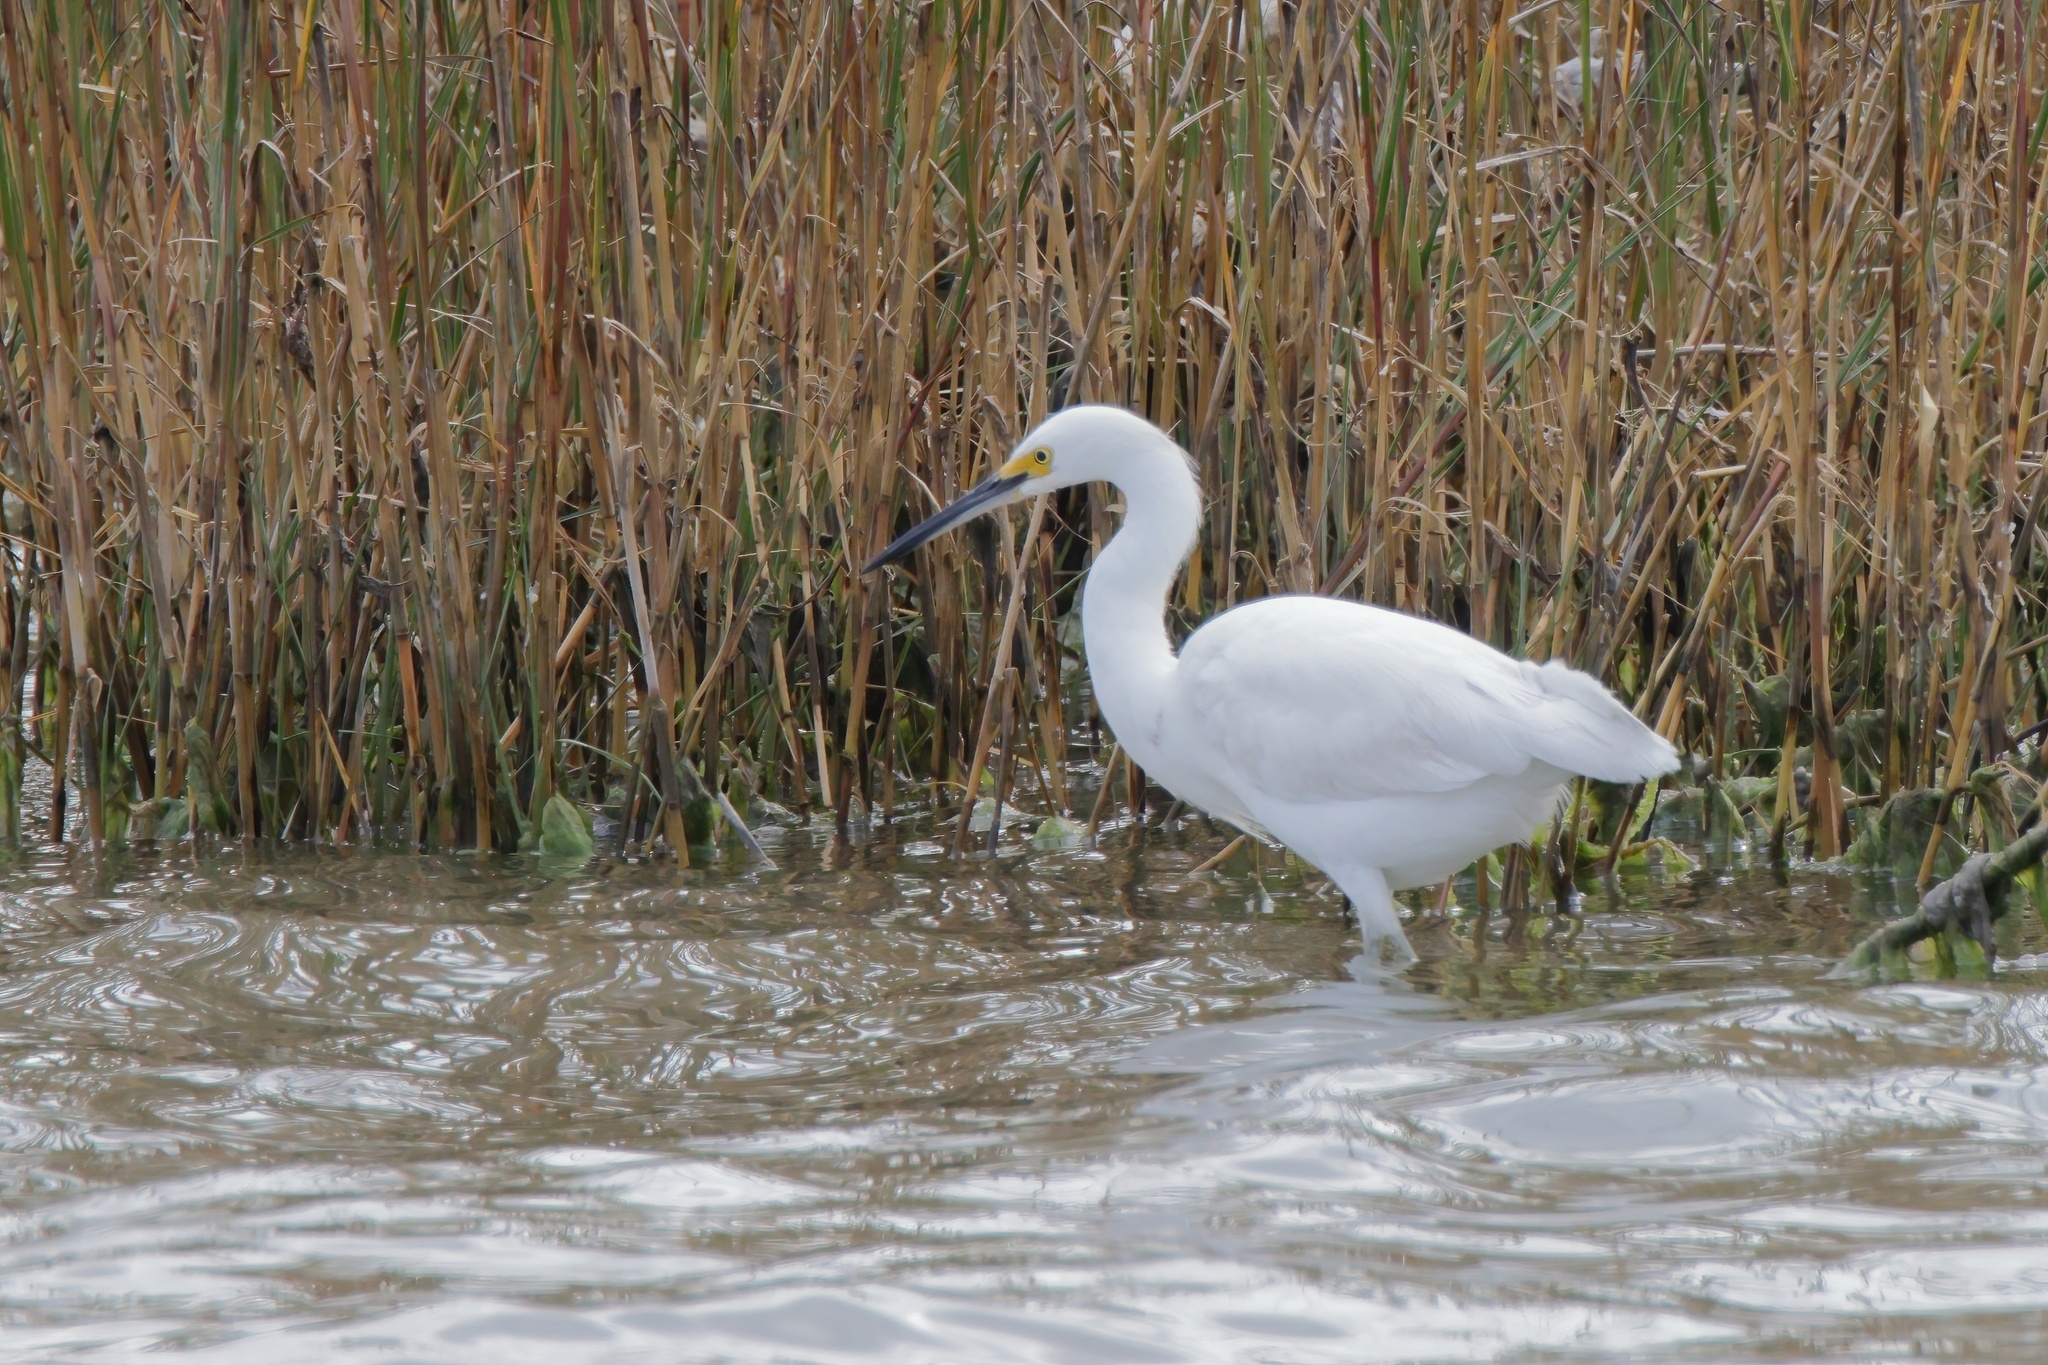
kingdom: Animalia
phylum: Chordata
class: Aves
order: Pelecaniformes
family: Ardeidae
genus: Egretta
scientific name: Egretta thula
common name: Snowy egret
